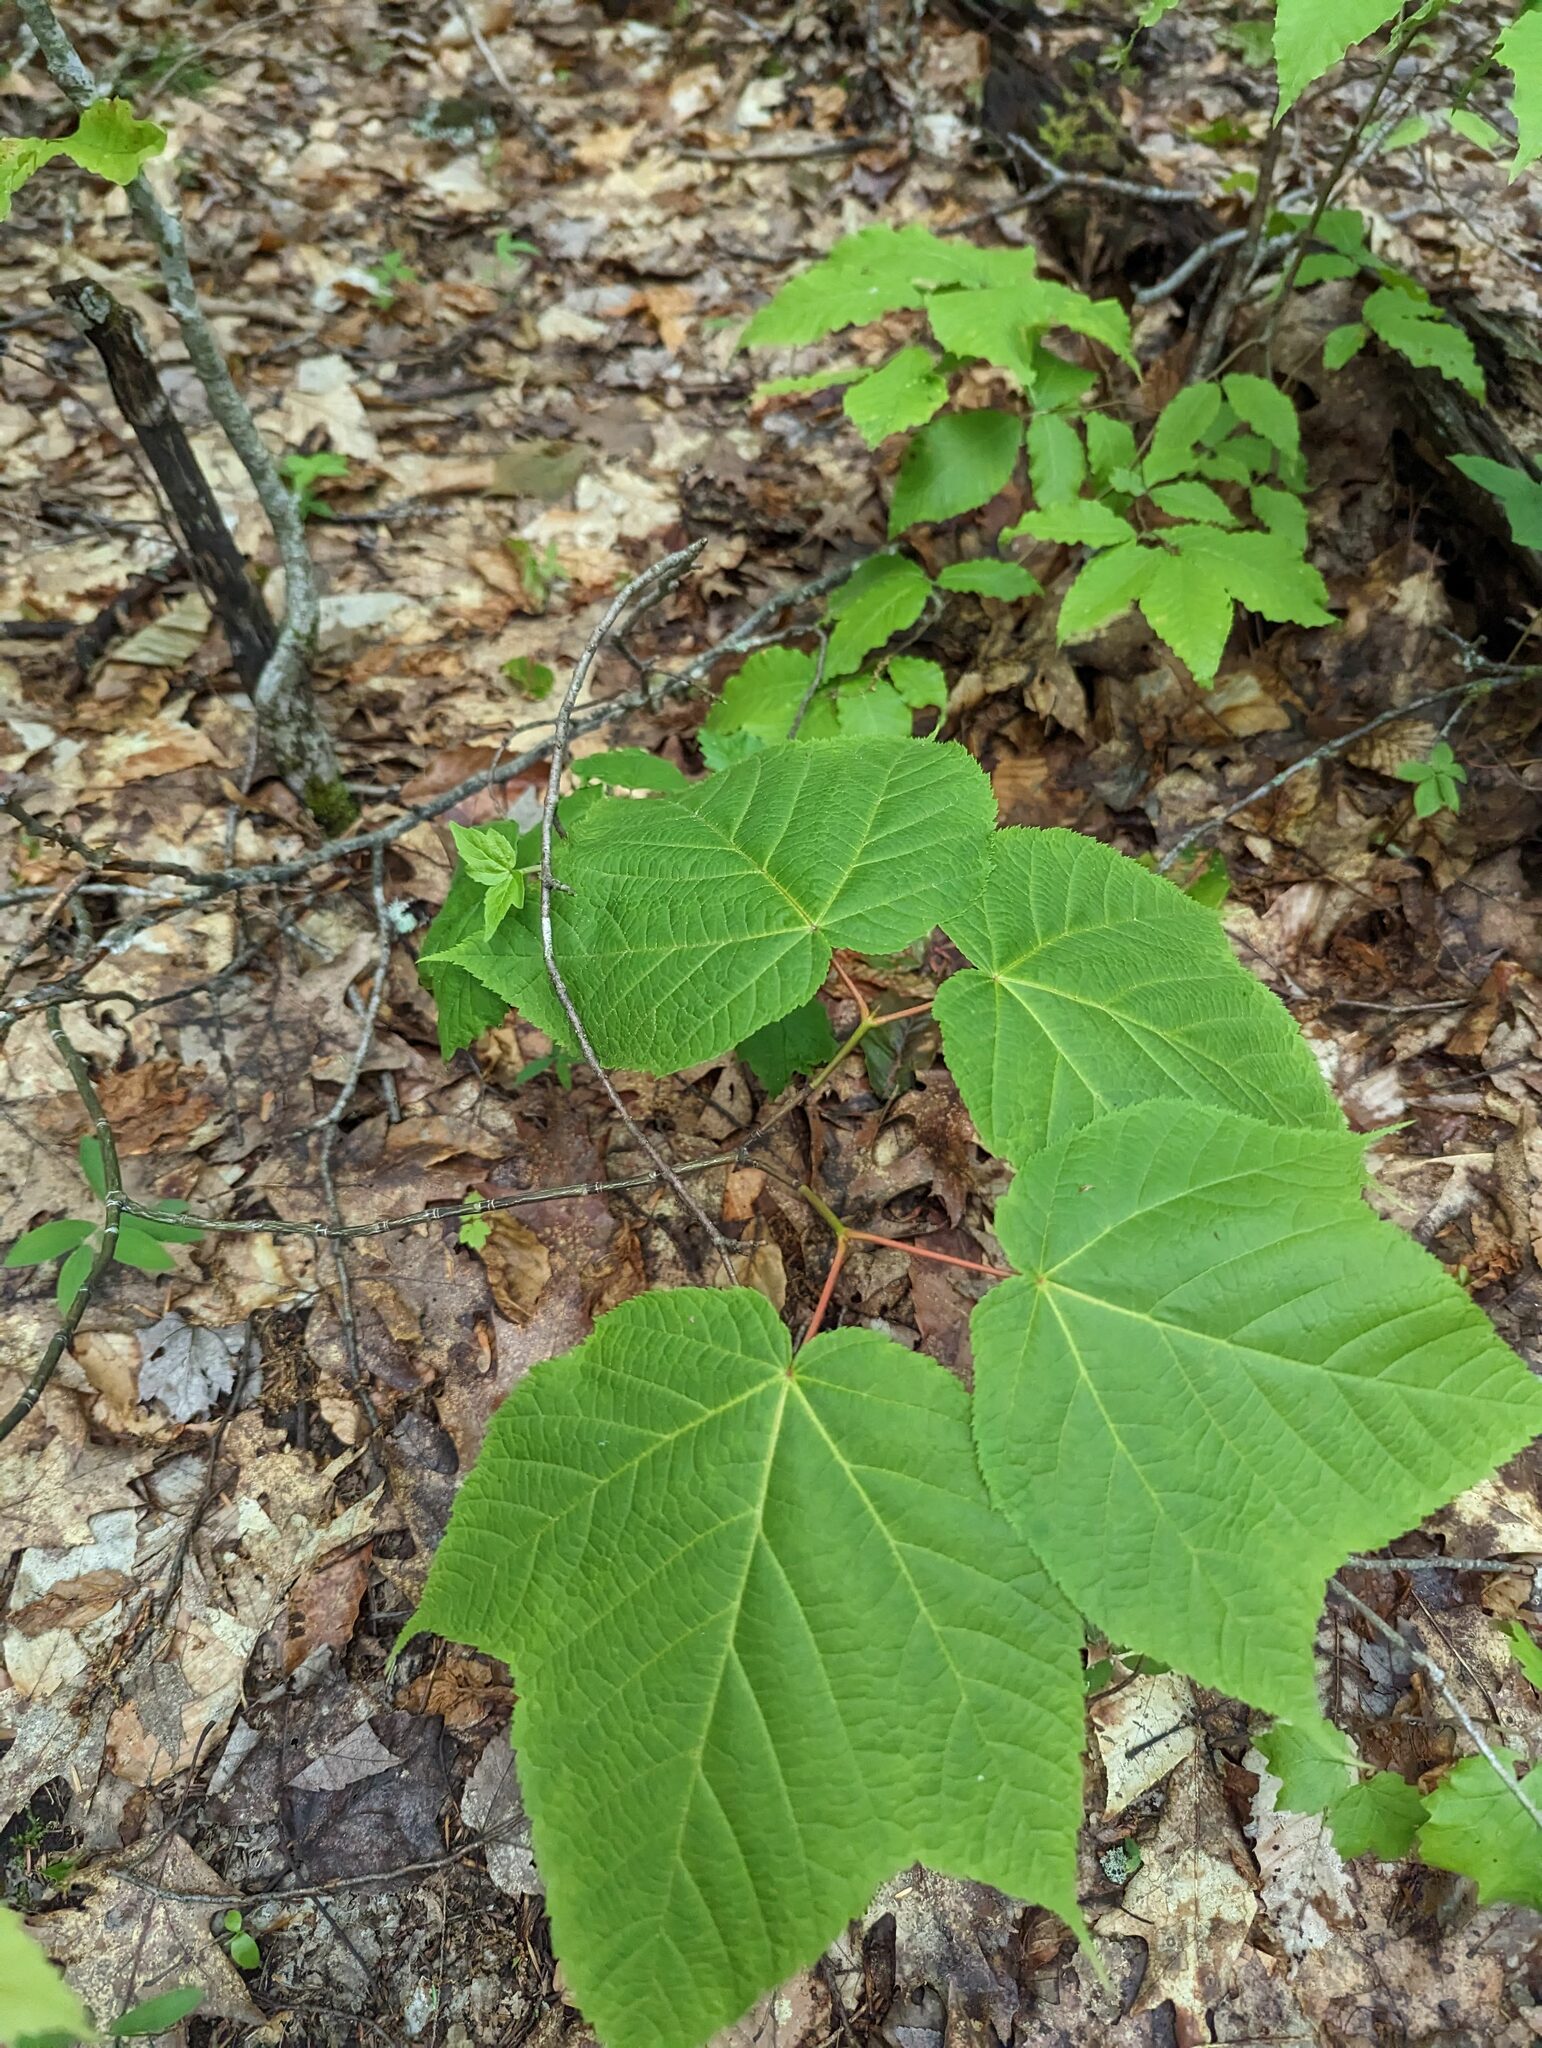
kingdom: Plantae
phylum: Tracheophyta
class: Magnoliopsida
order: Sapindales
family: Sapindaceae
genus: Acer
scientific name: Acer pensylvanicum
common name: Moosewood
